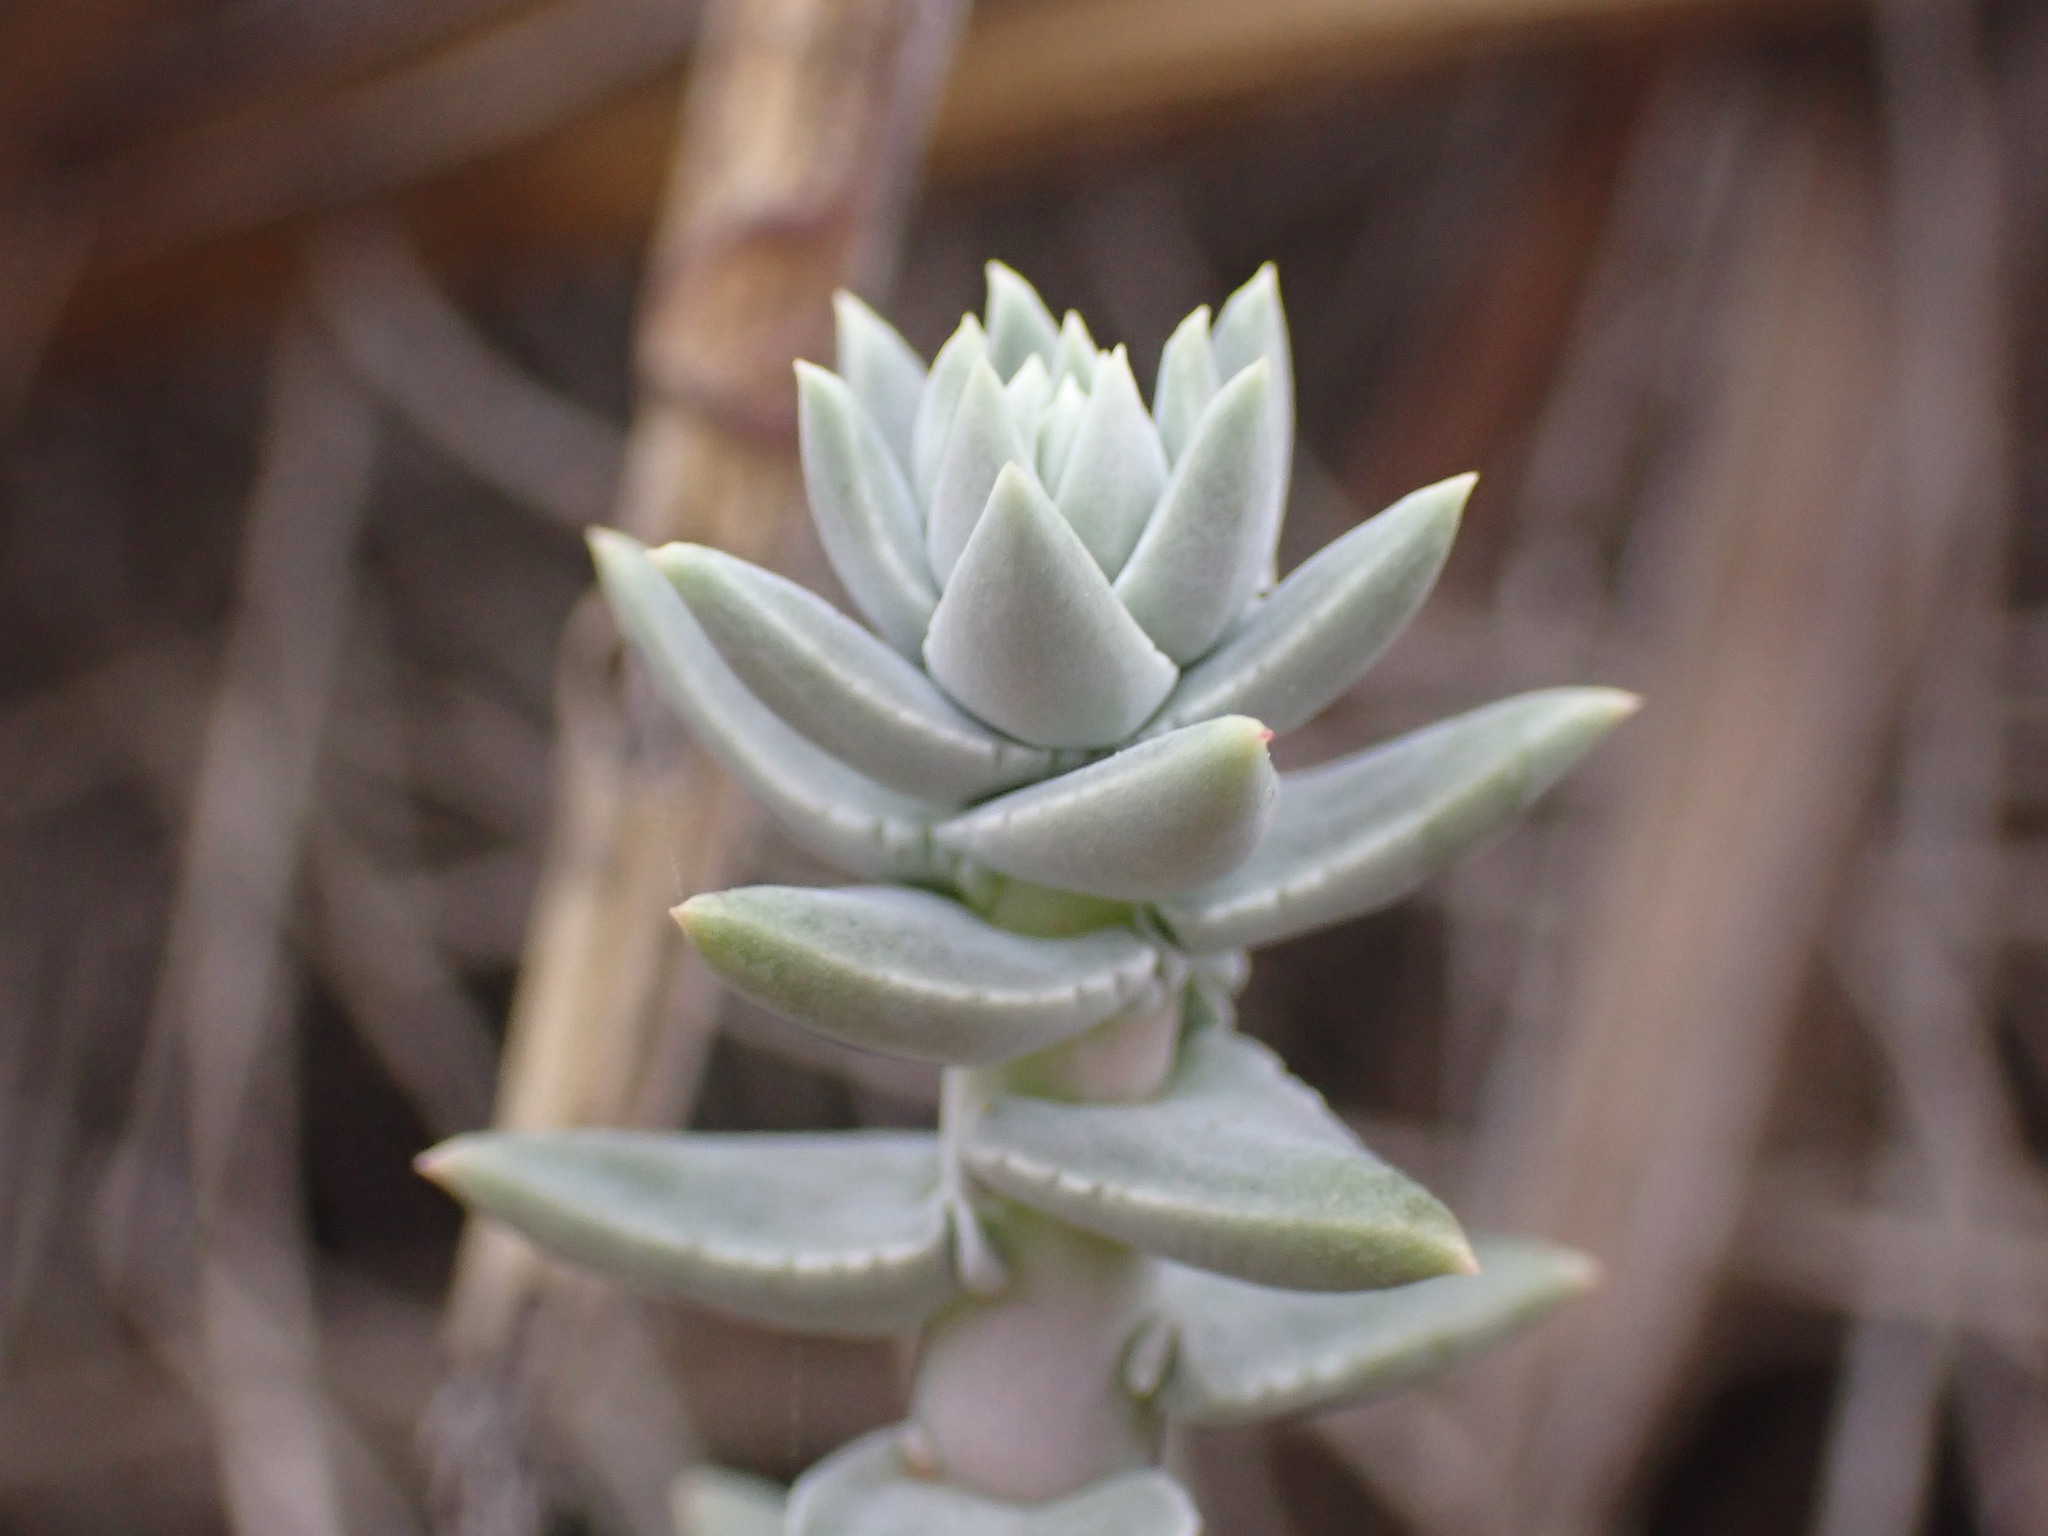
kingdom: Plantae
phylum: Tracheophyta
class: Magnoliopsida
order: Saxifragales
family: Crassulaceae
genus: Dudleya
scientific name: Dudleya lanceolata
